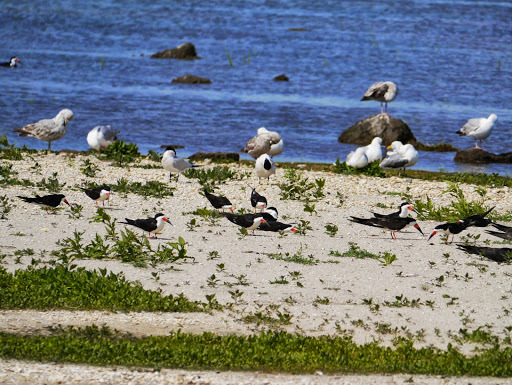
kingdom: Animalia
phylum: Chordata
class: Aves
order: Charadriiformes
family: Laridae
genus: Rynchops
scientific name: Rynchops niger
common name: Black skimmer
